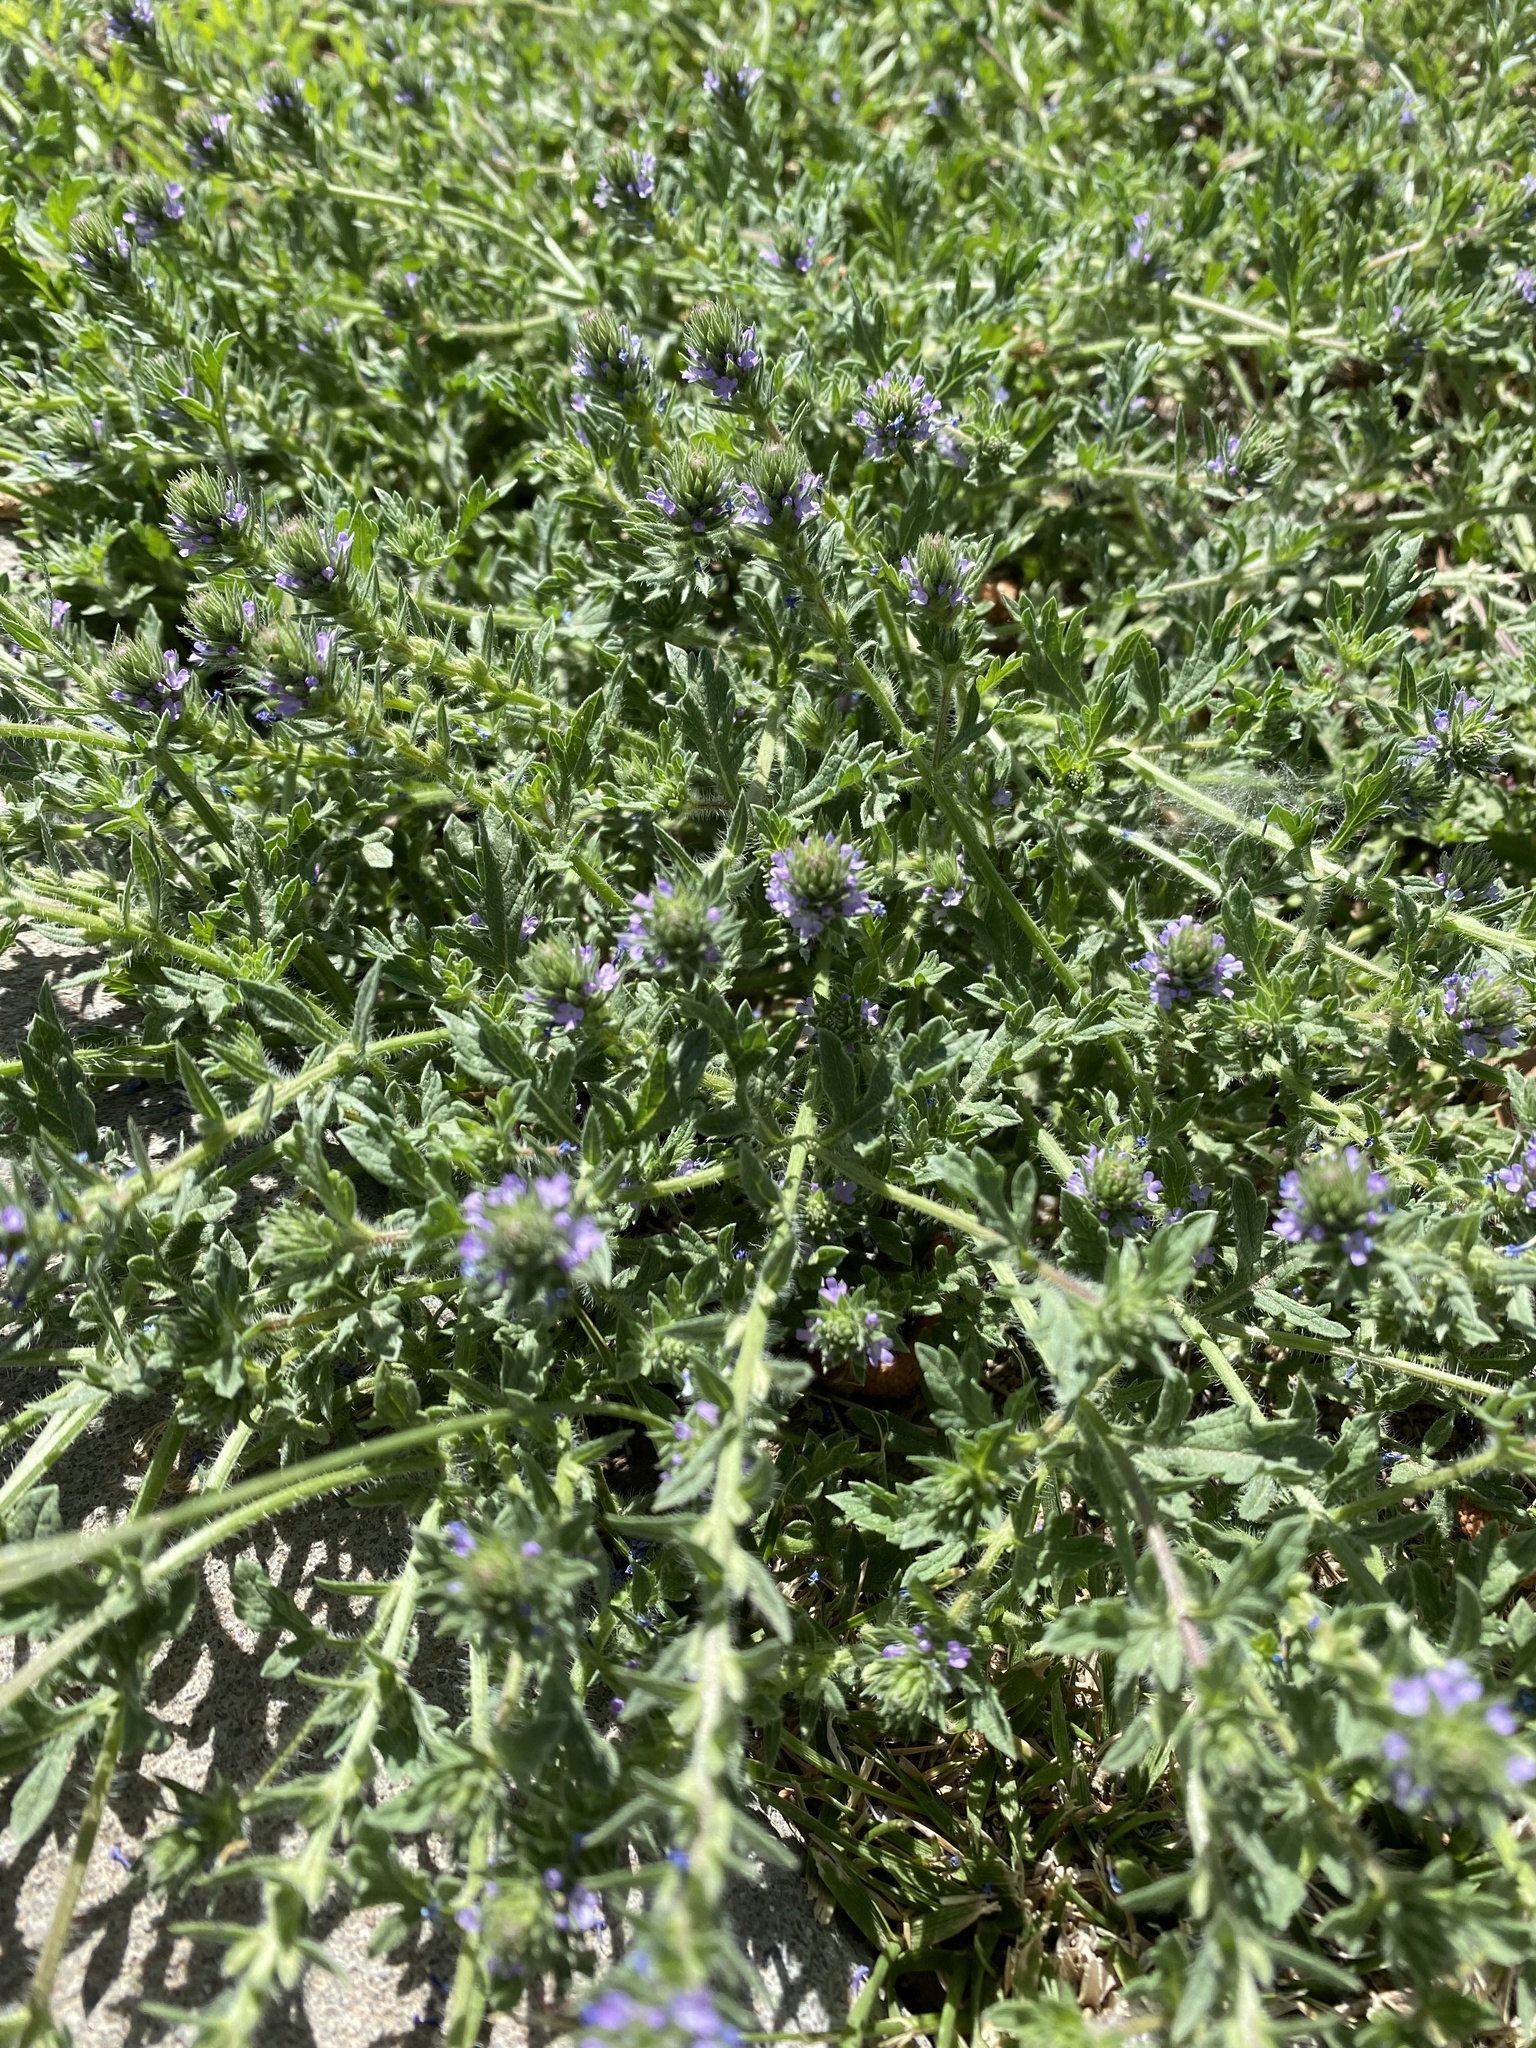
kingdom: Plantae
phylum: Tracheophyta
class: Magnoliopsida
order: Lamiales
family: Verbenaceae
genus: Verbena
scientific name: Verbena bracteata
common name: Bracted vervain
